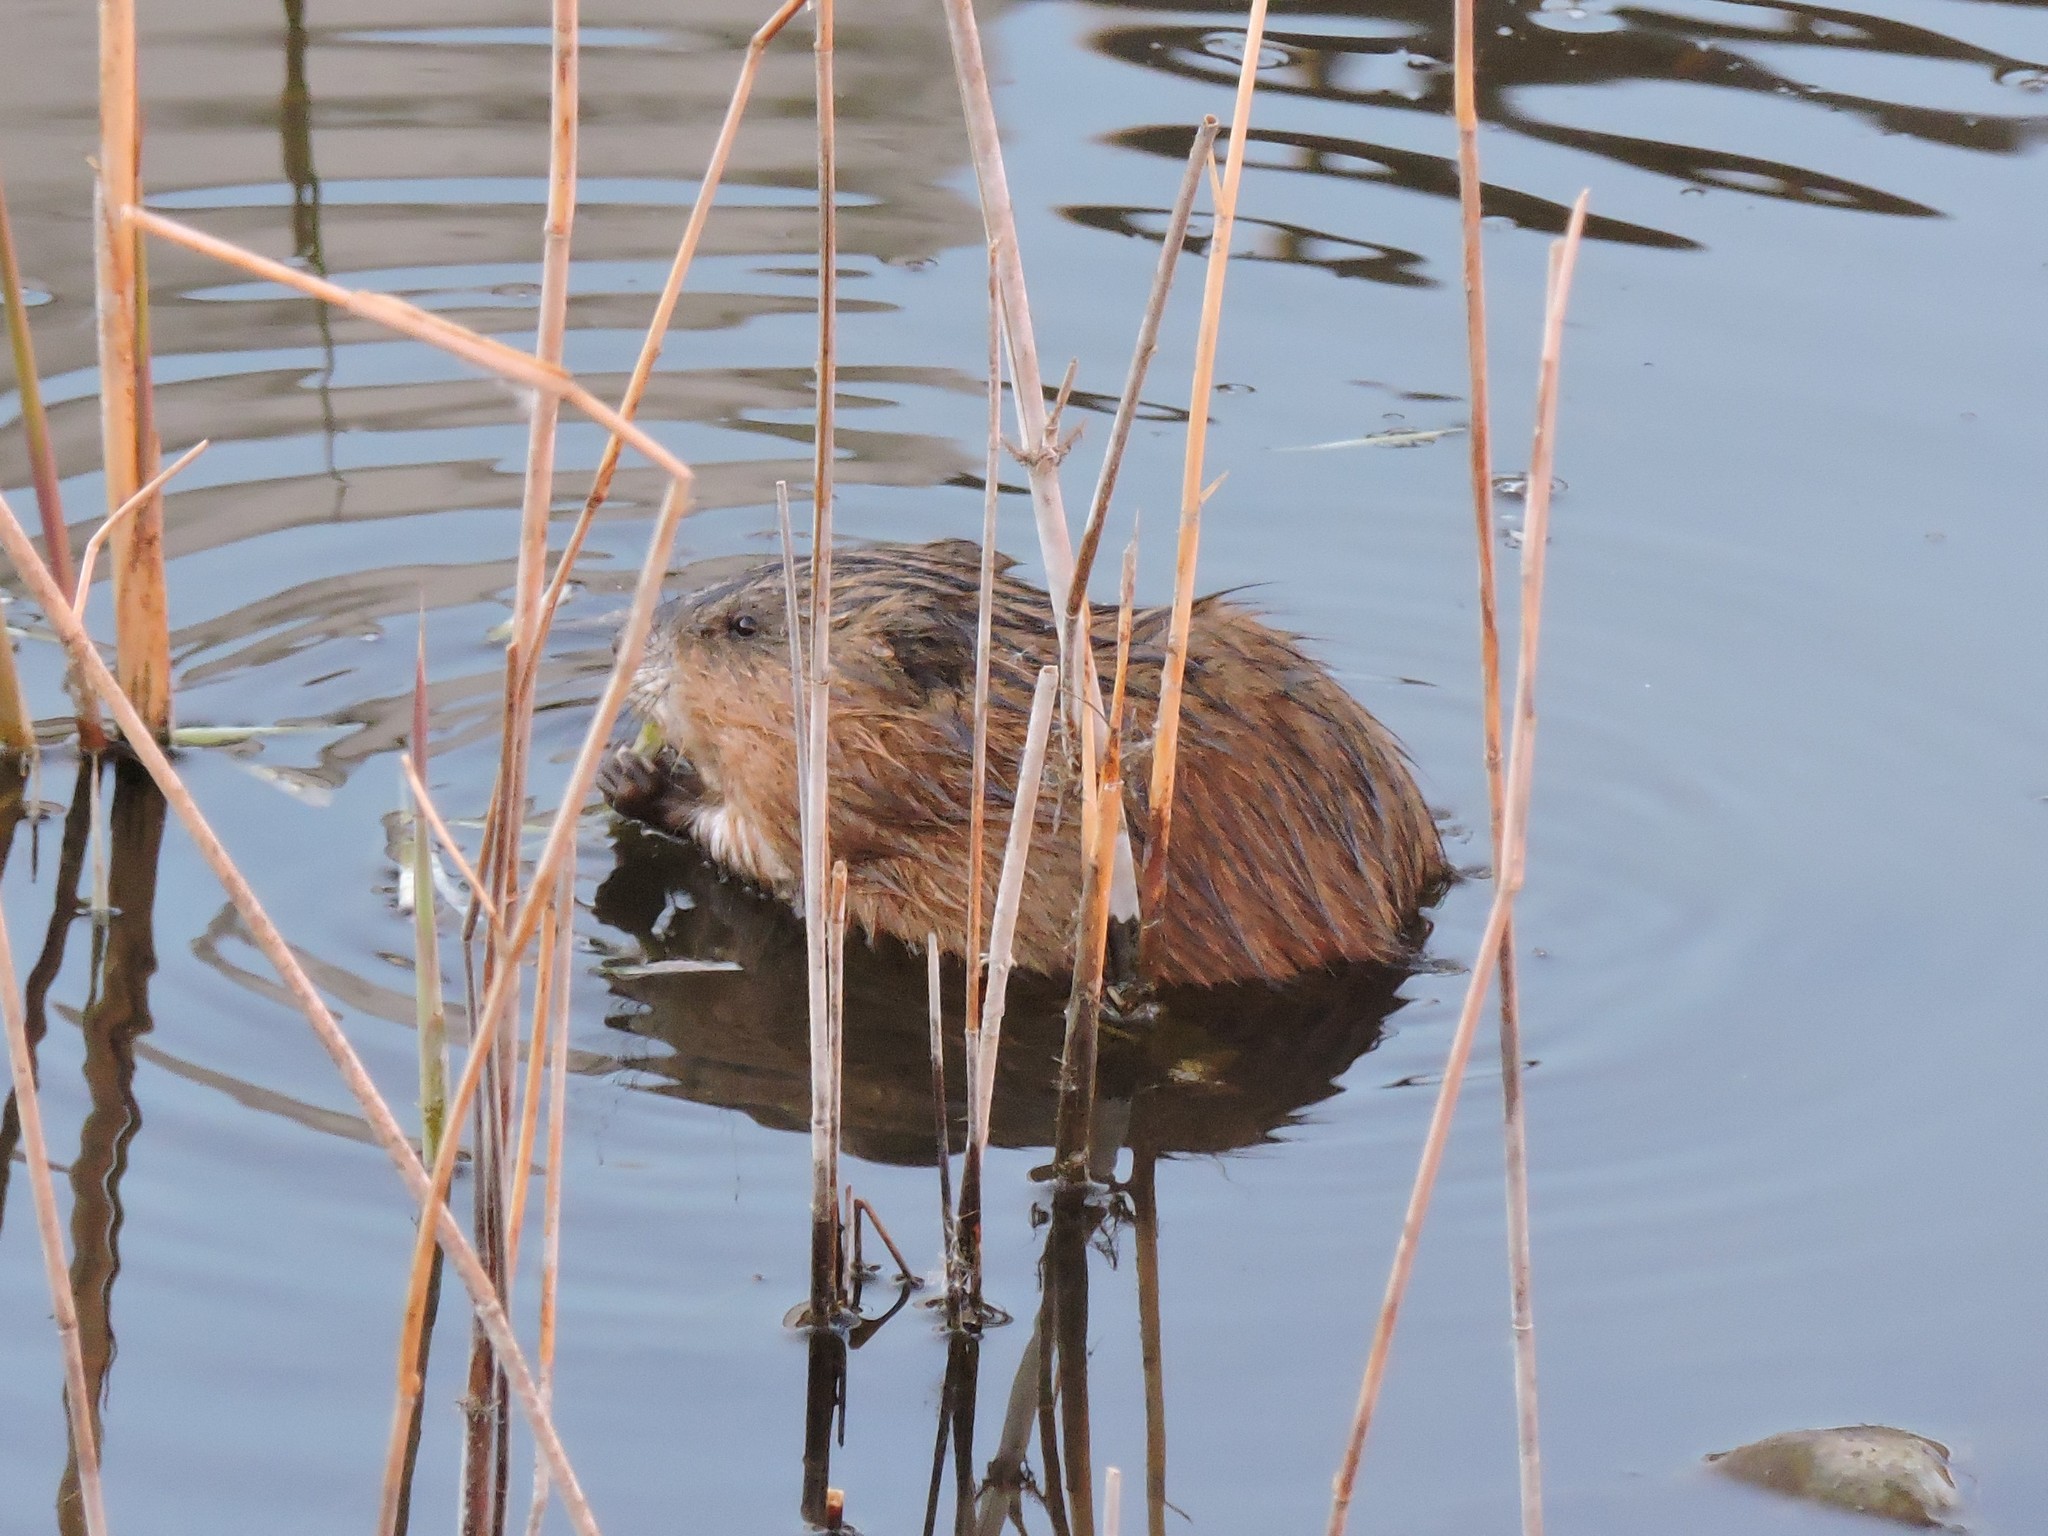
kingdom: Animalia
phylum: Chordata
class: Mammalia
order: Rodentia
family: Cricetidae
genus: Ondatra
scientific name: Ondatra zibethicus
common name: Muskrat
